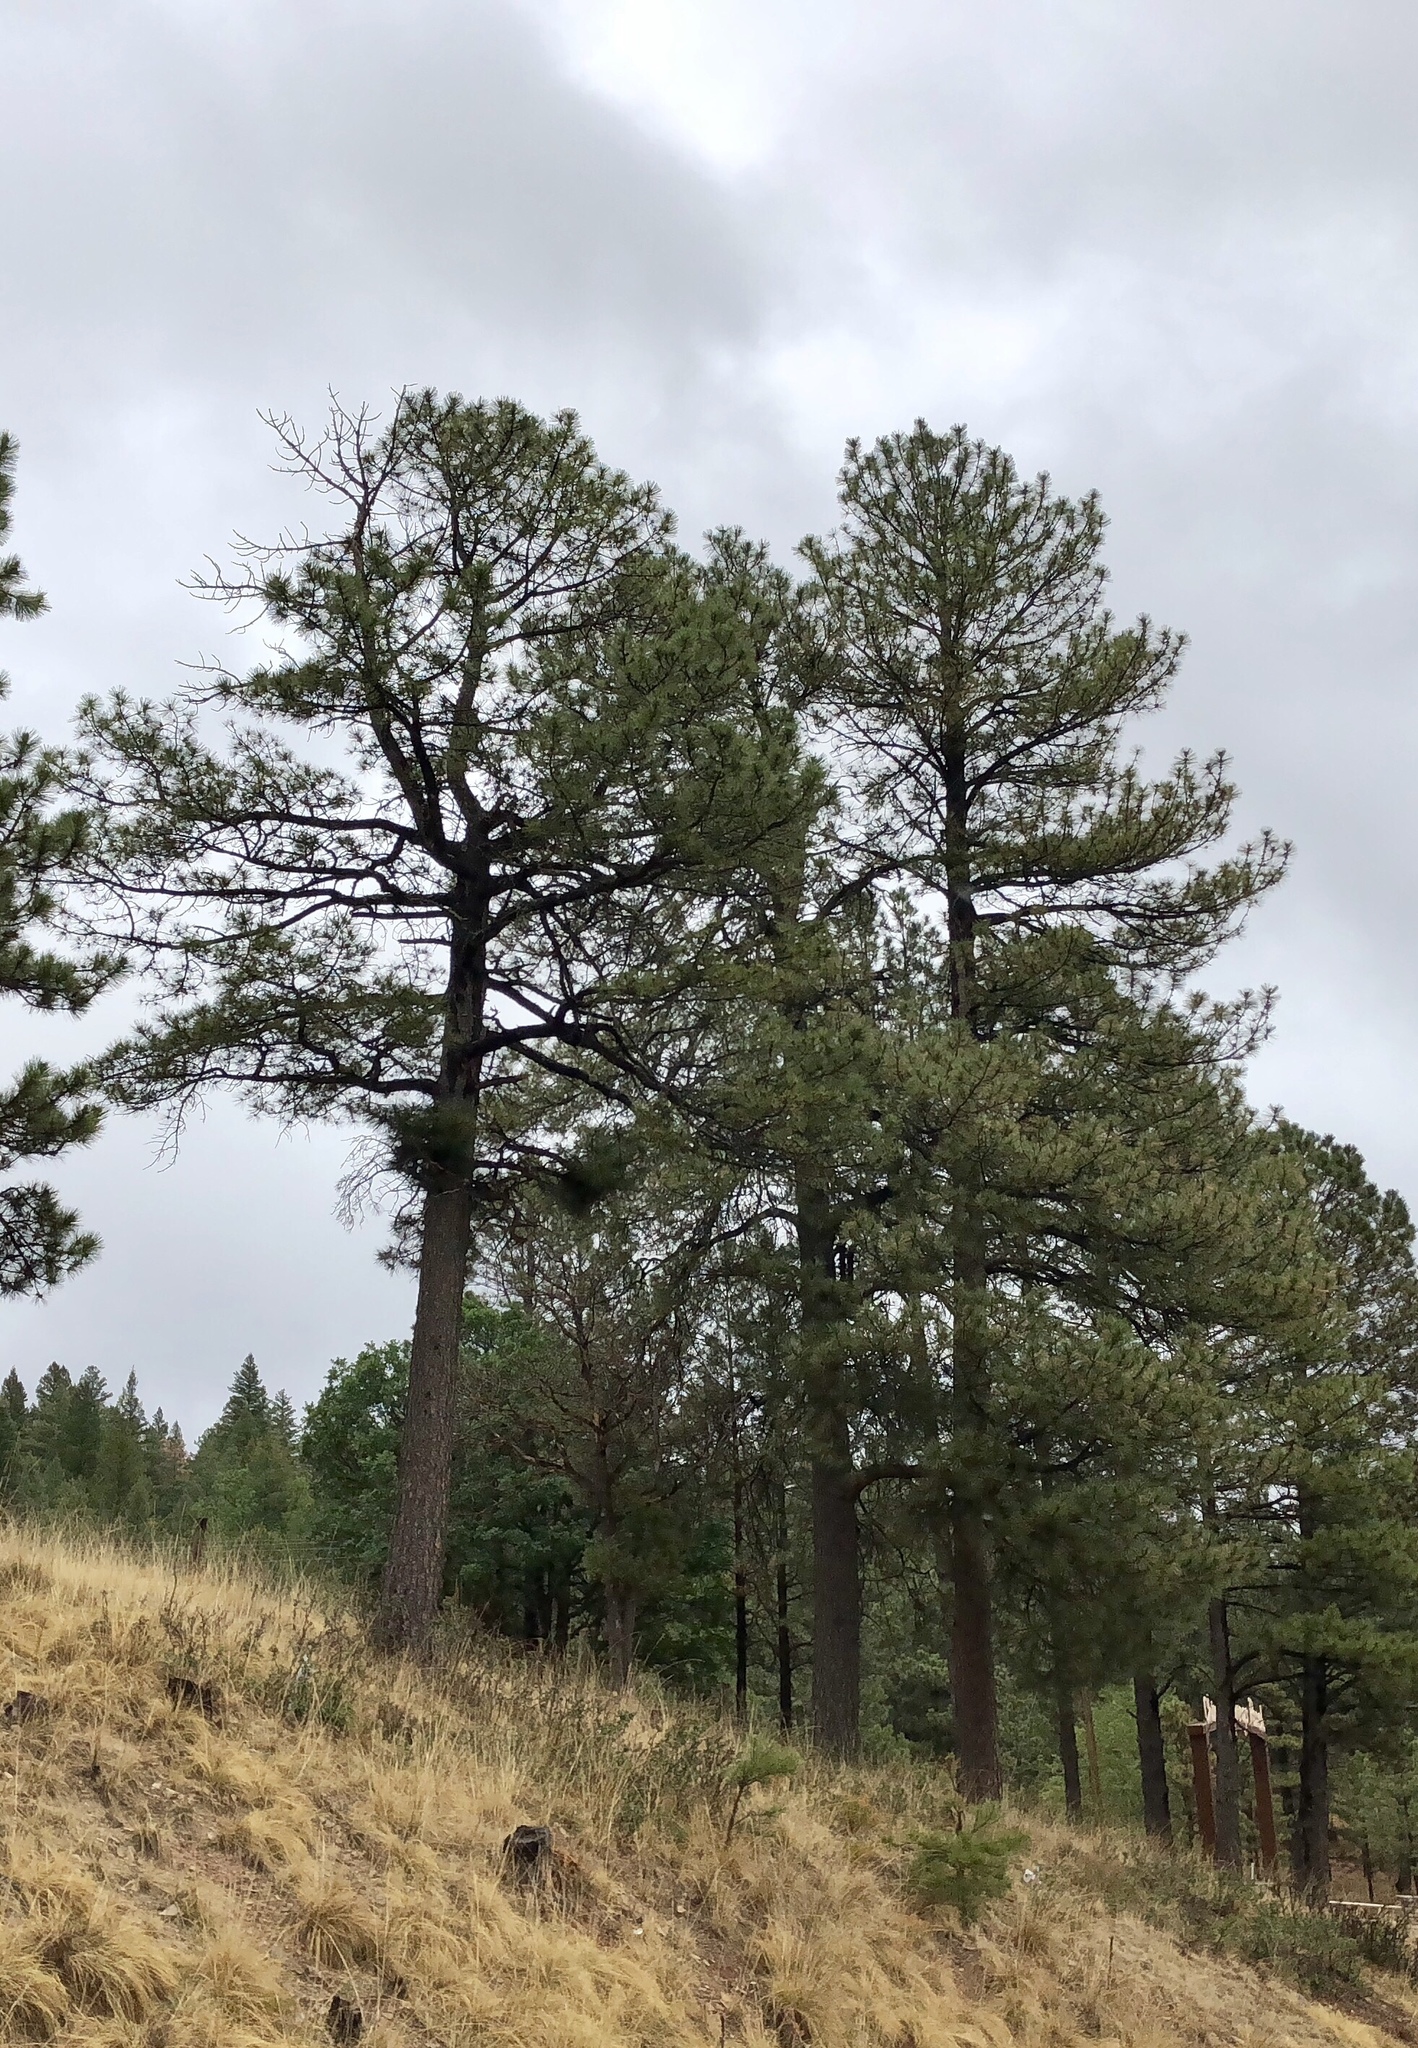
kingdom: Plantae
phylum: Tracheophyta
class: Pinopsida
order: Pinales
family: Pinaceae
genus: Pinus
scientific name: Pinus ponderosa
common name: Western yellow-pine
